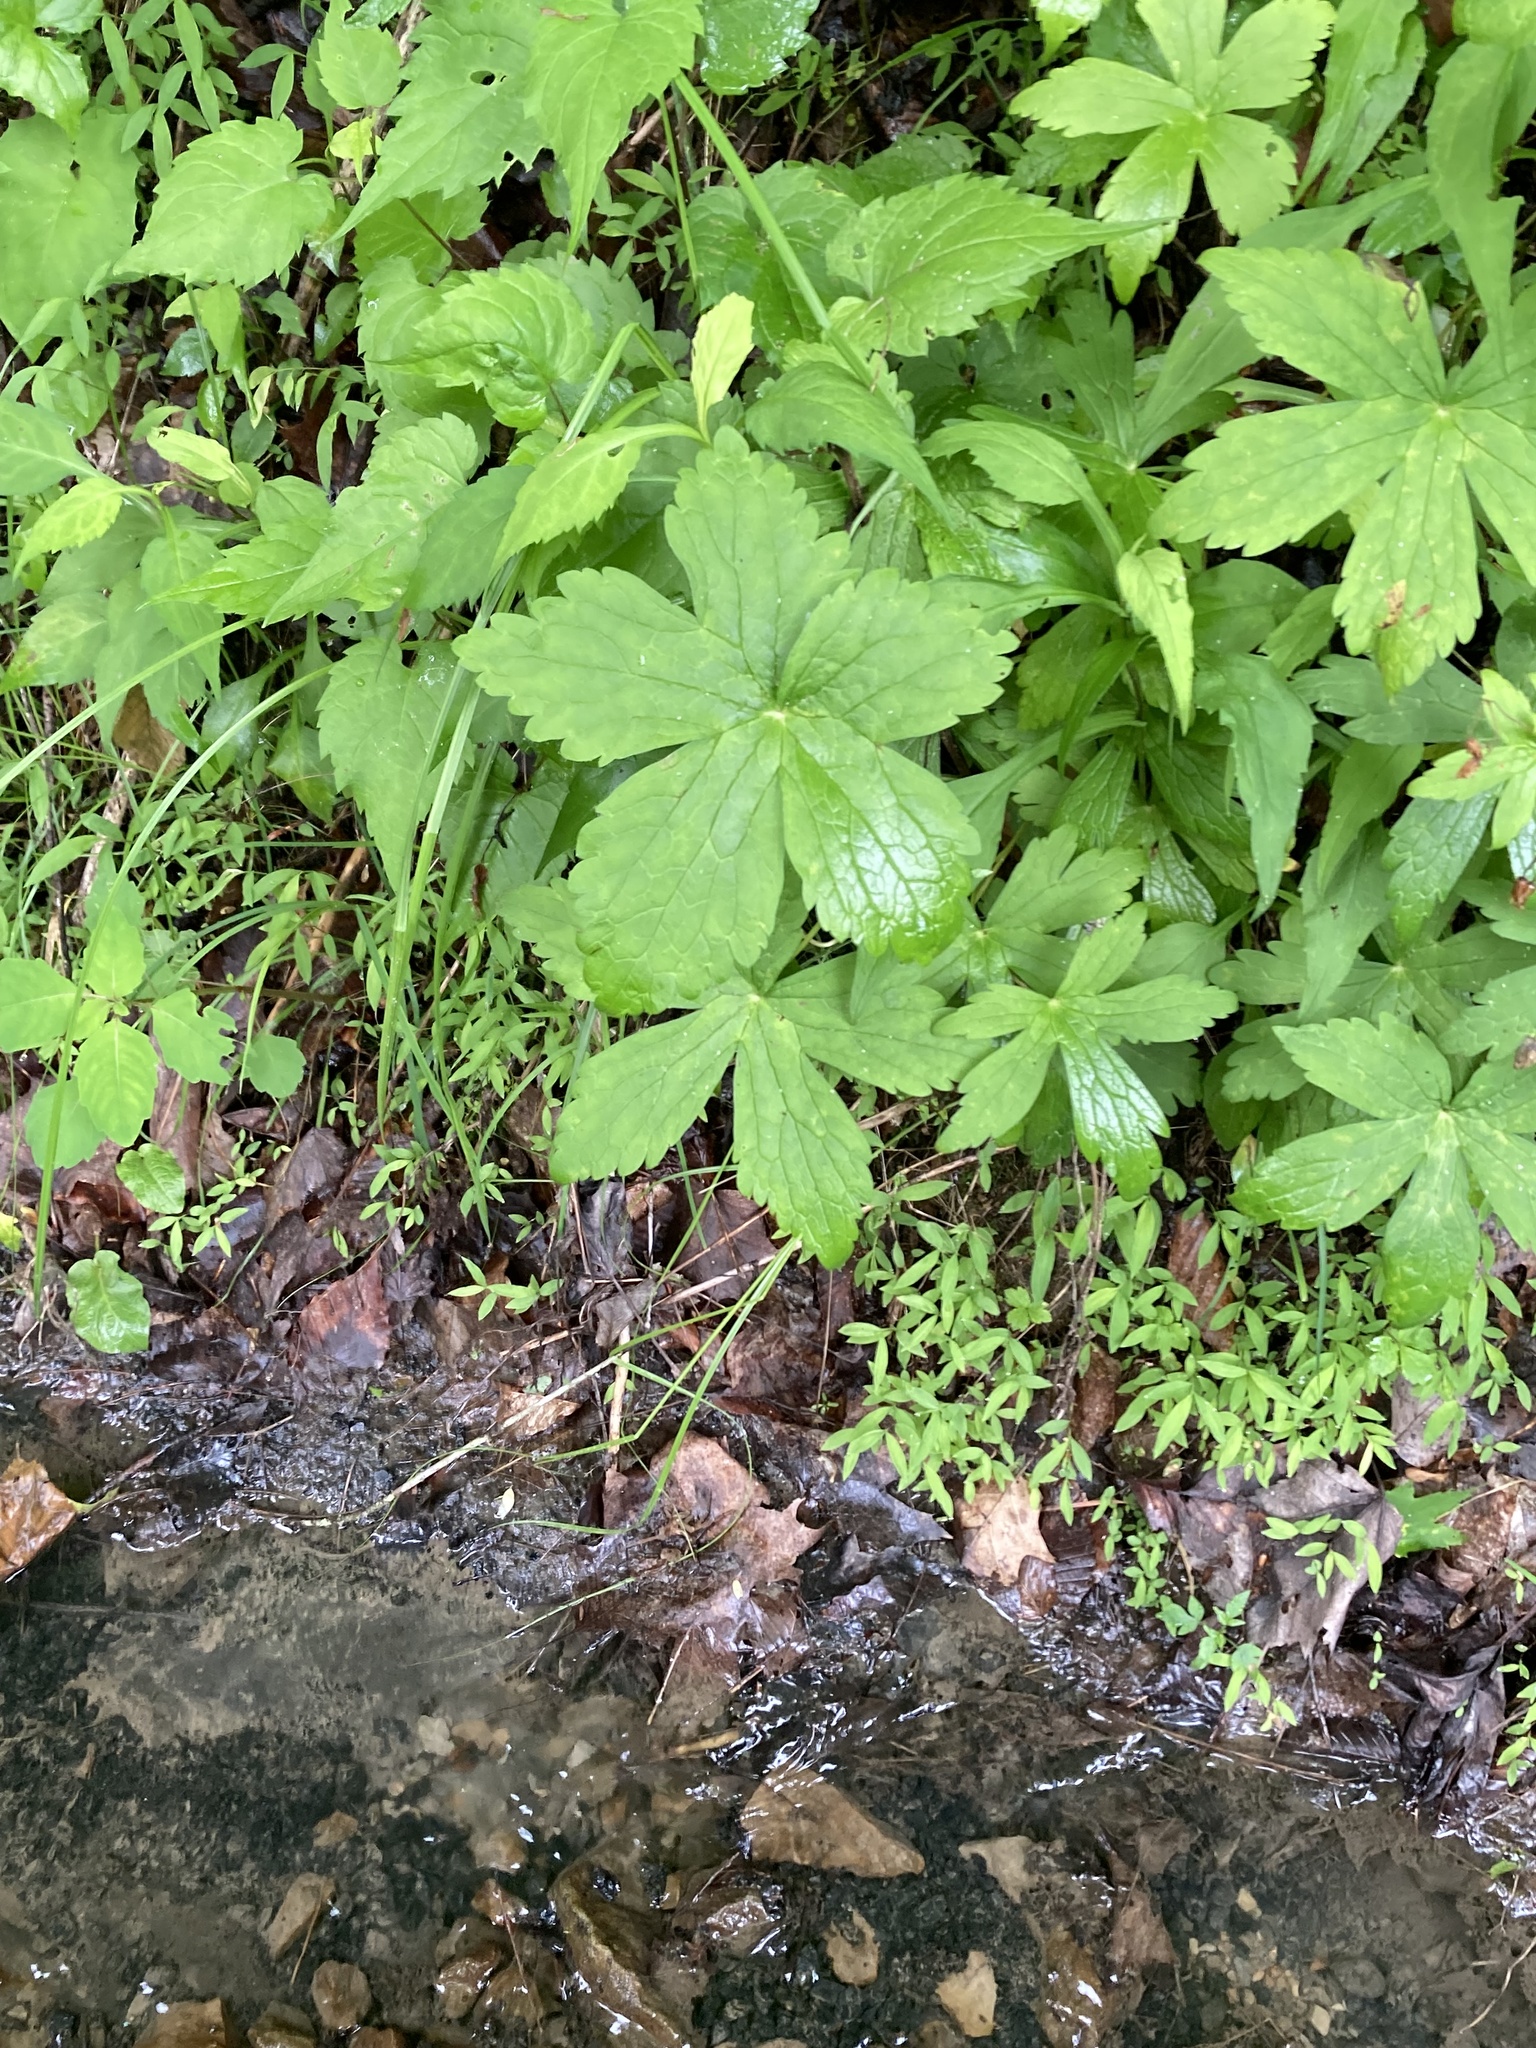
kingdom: Plantae
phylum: Tracheophyta
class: Magnoliopsida
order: Ranunculales
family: Ranunculaceae
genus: Trautvetteria
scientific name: Trautvetteria carolinensis
